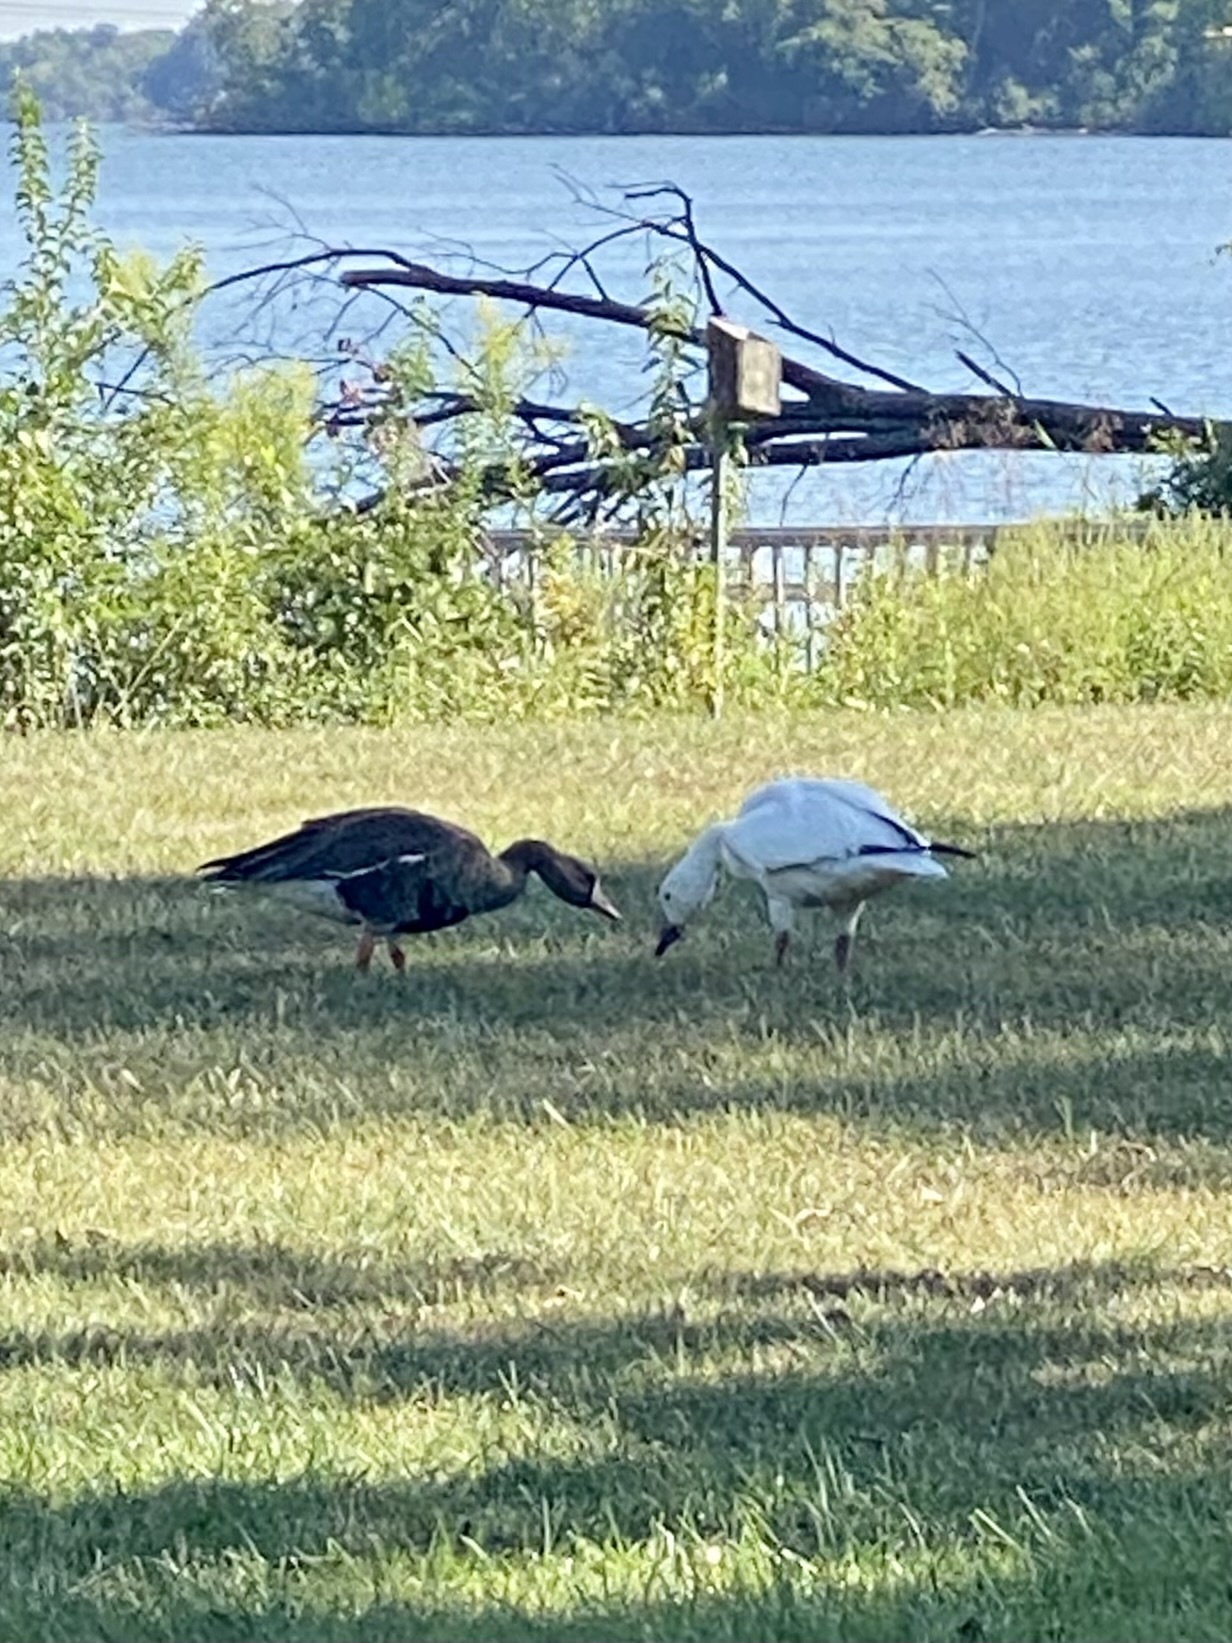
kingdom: Animalia
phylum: Chordata
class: Aves
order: Anseriformes
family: Anatidae
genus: Anser
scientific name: Anser caerulescens
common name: Snow goose
